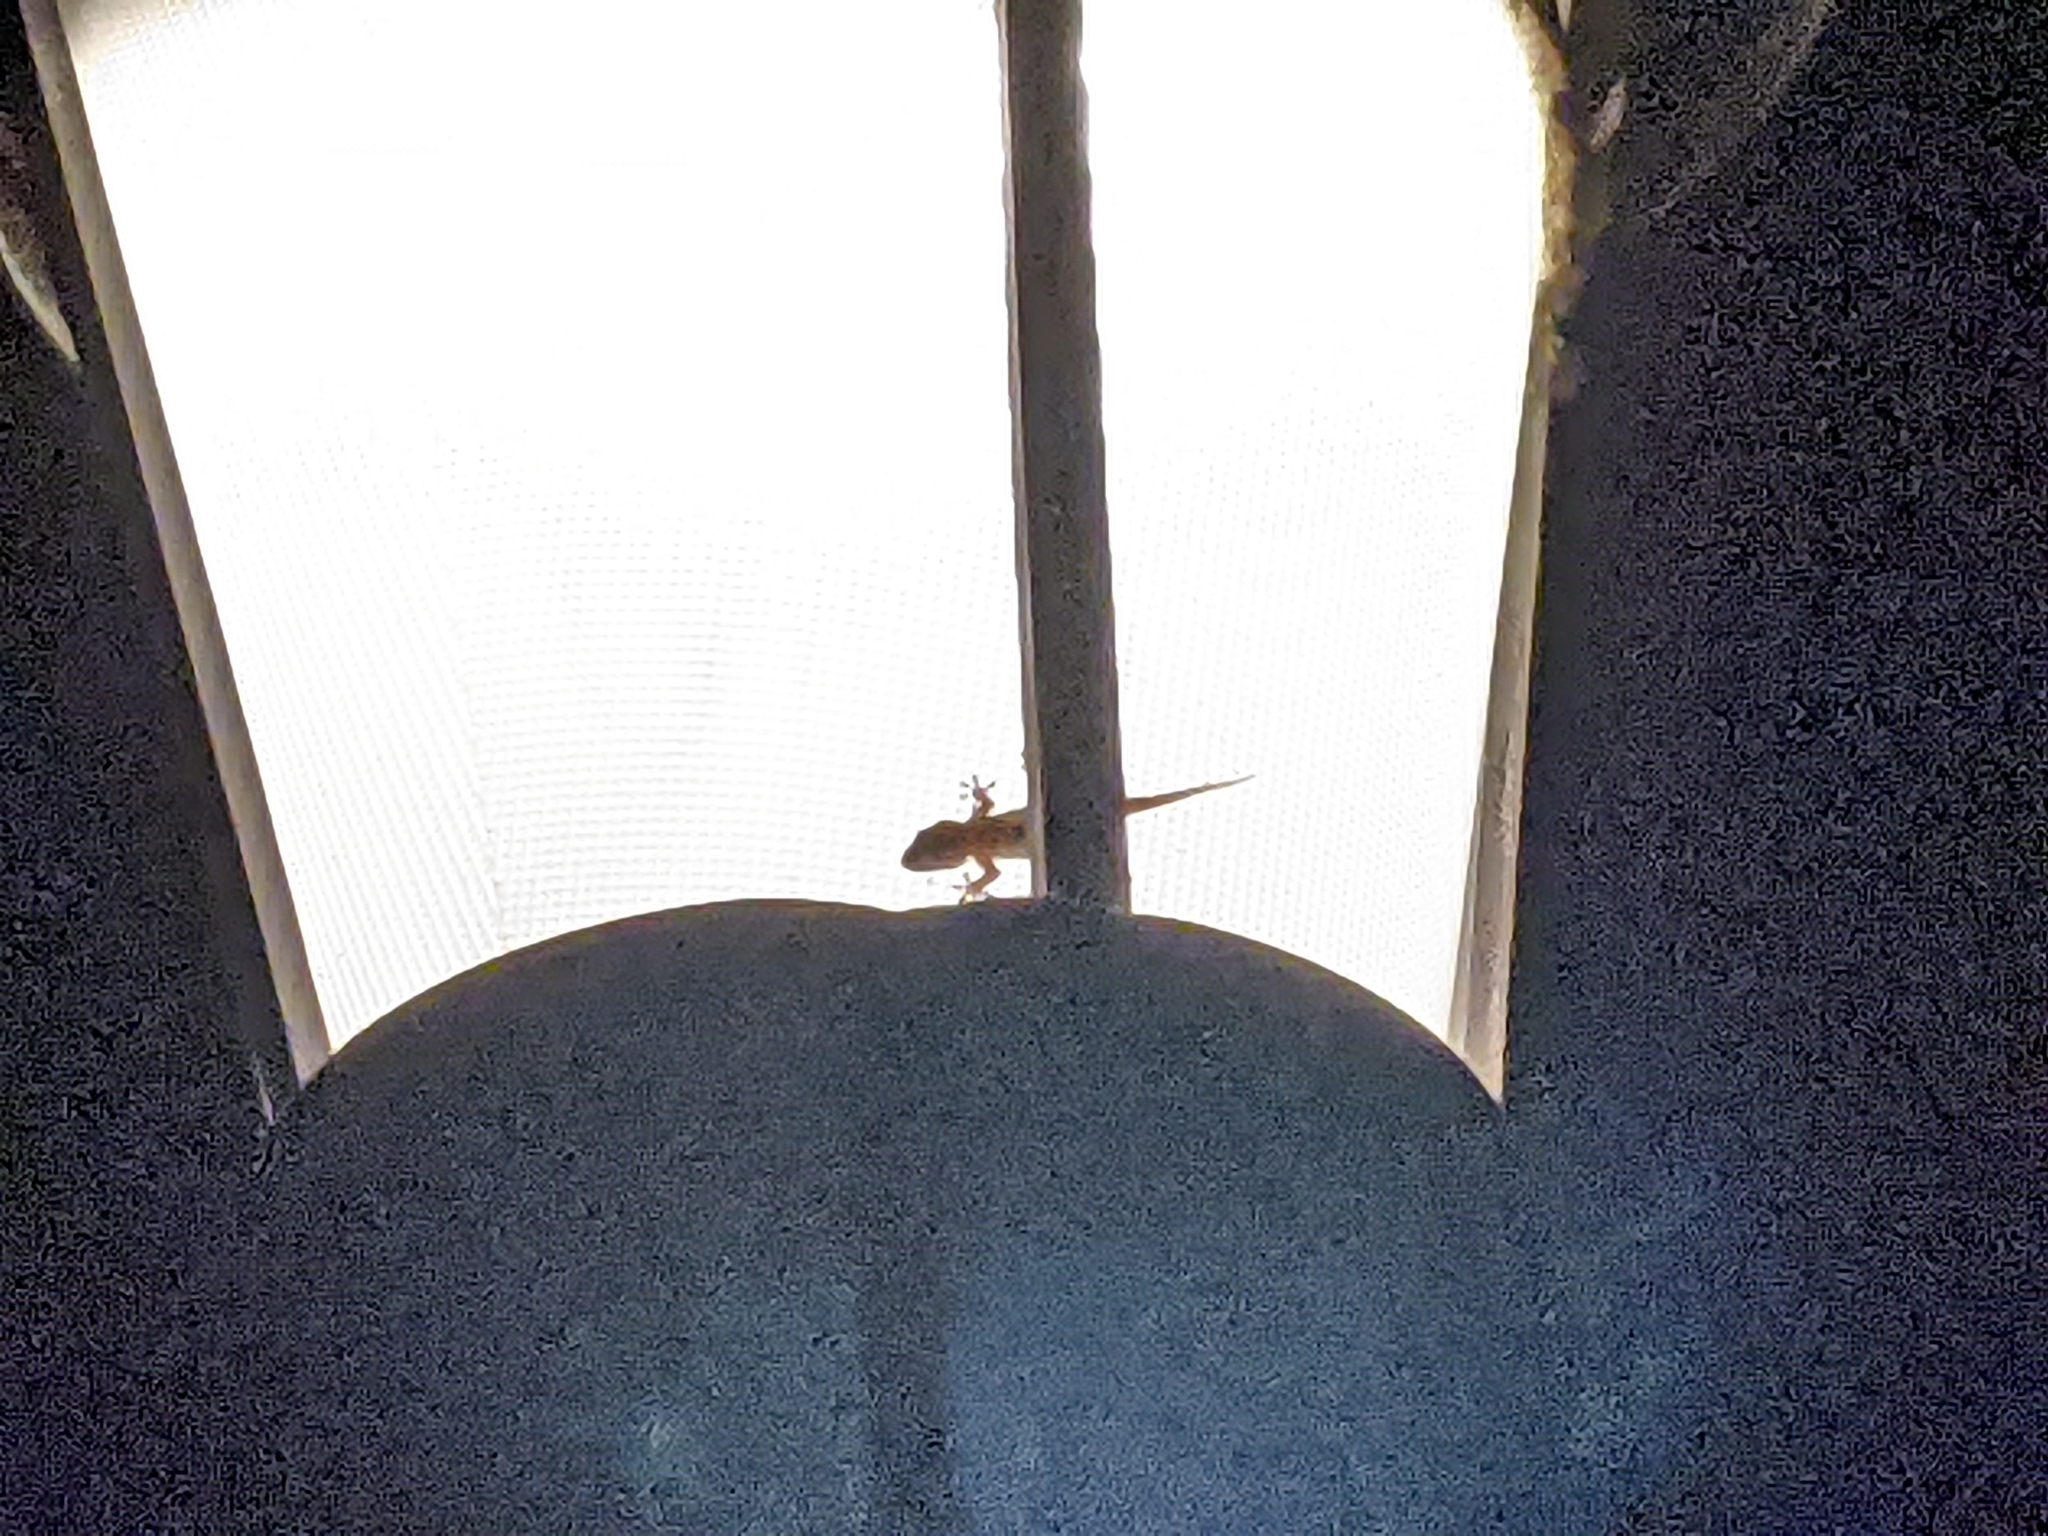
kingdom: Animalia
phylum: Chordata
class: Squamata
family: Phyllodactylidae
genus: Tarentola
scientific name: Tarentola mauritanica
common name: Moorish gecko
